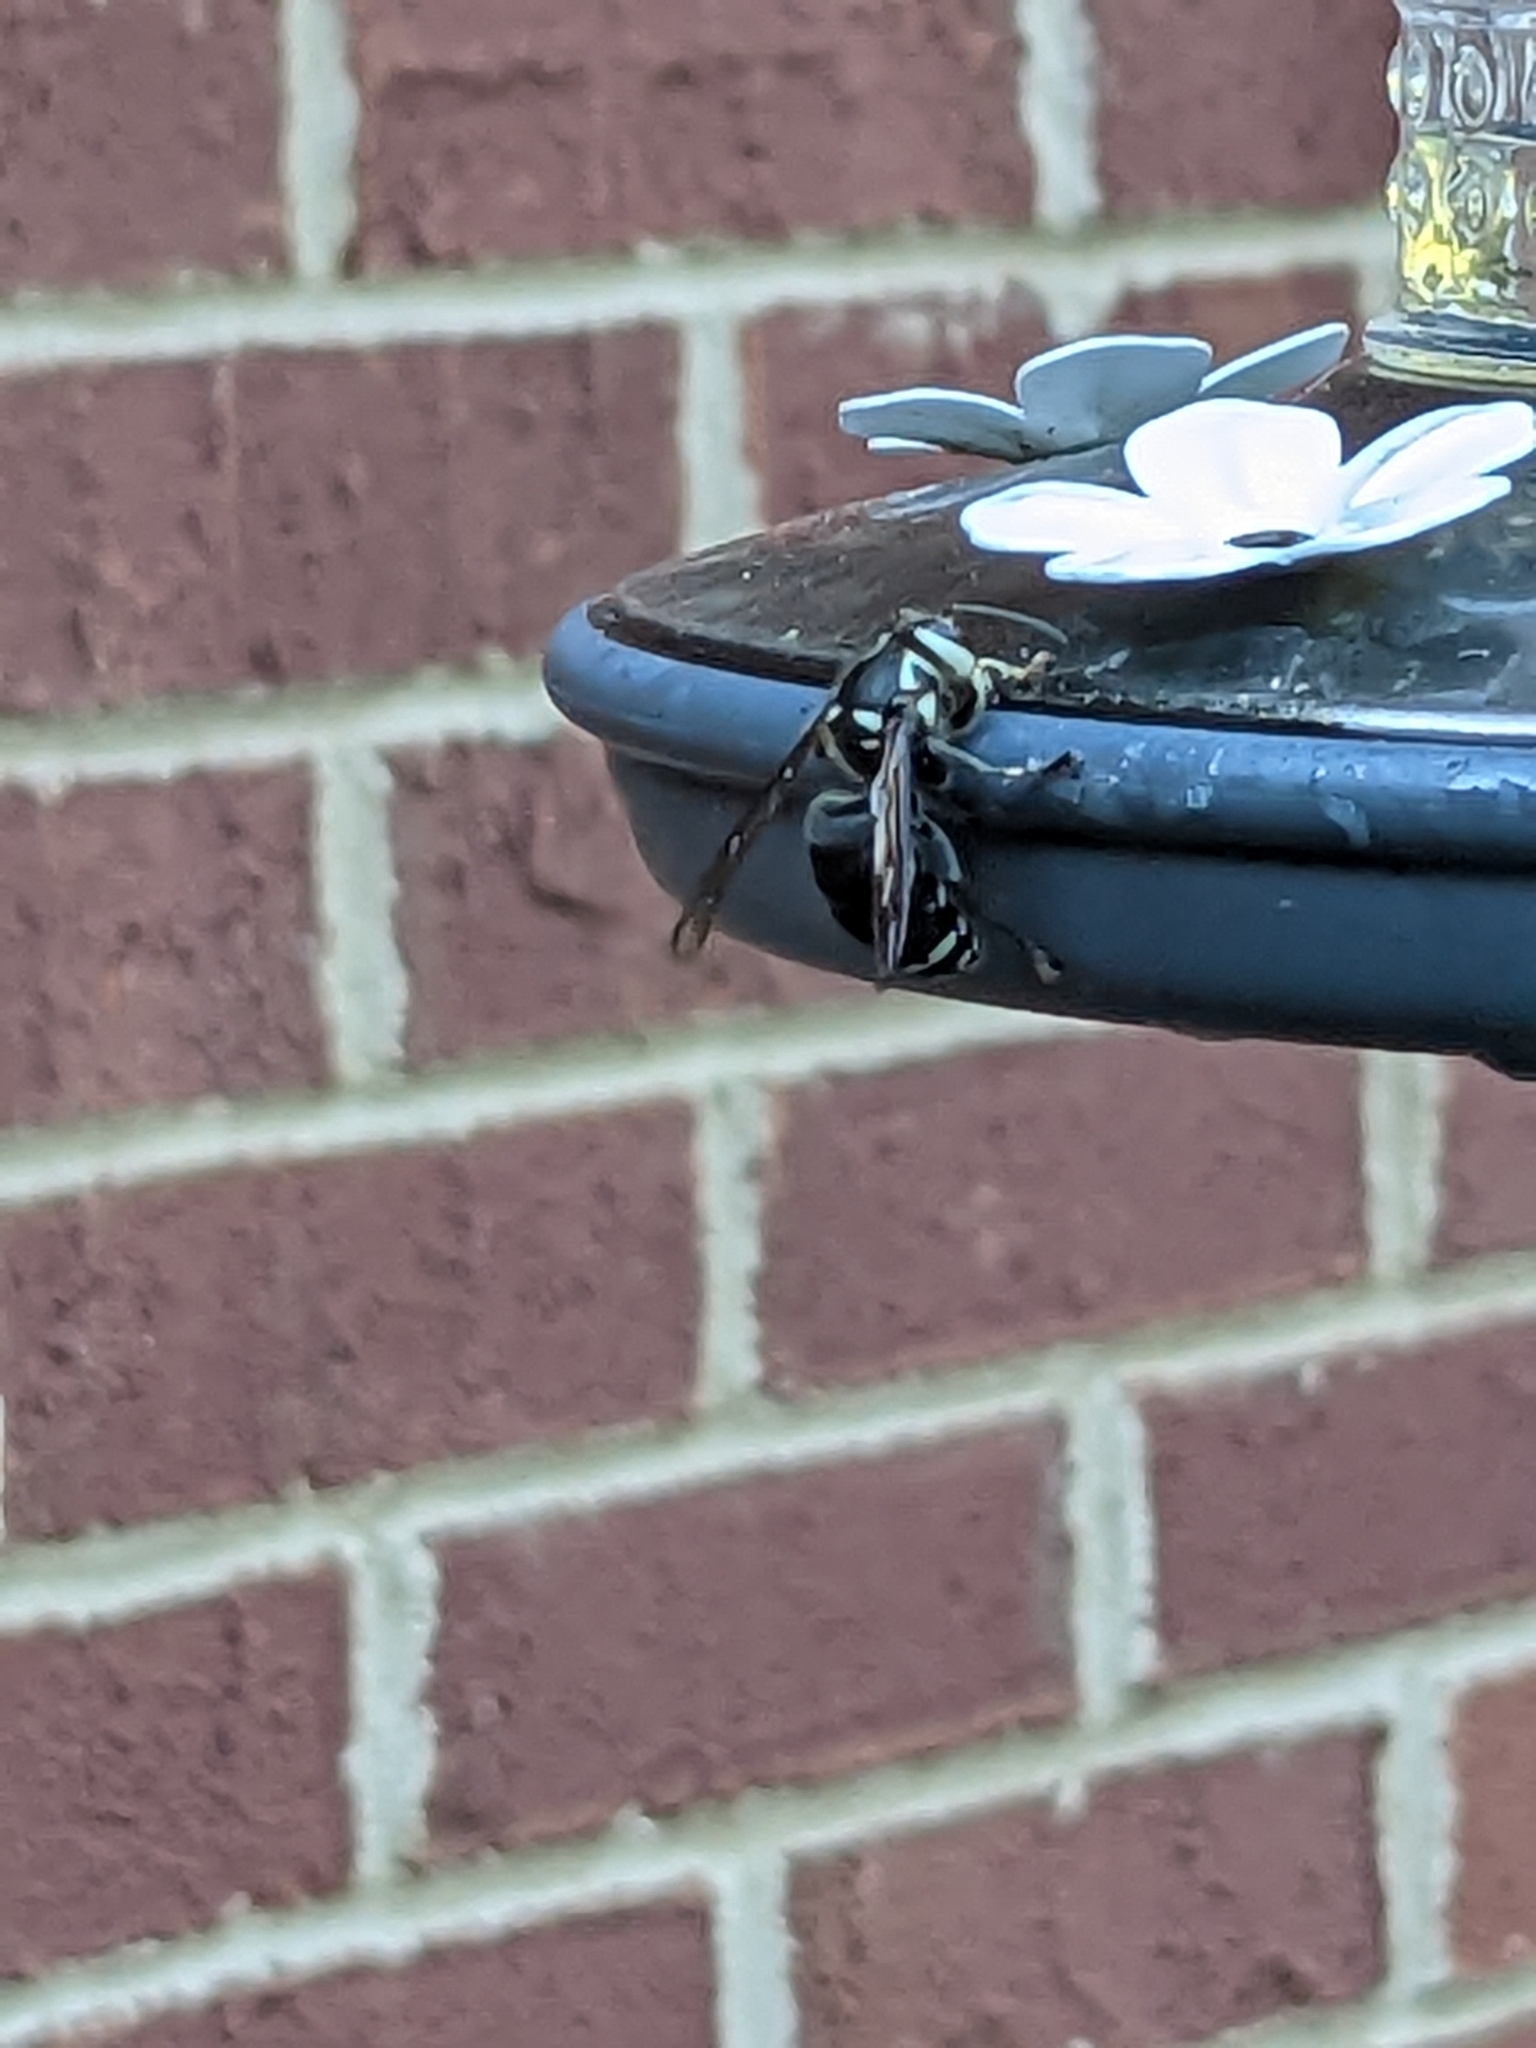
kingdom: Animalia
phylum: Arthropoda
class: Insecta
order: Hymenoptera
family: Vespidae
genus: Dolichovespula
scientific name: Dolichovespula maculata
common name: Bald-faced hornet
